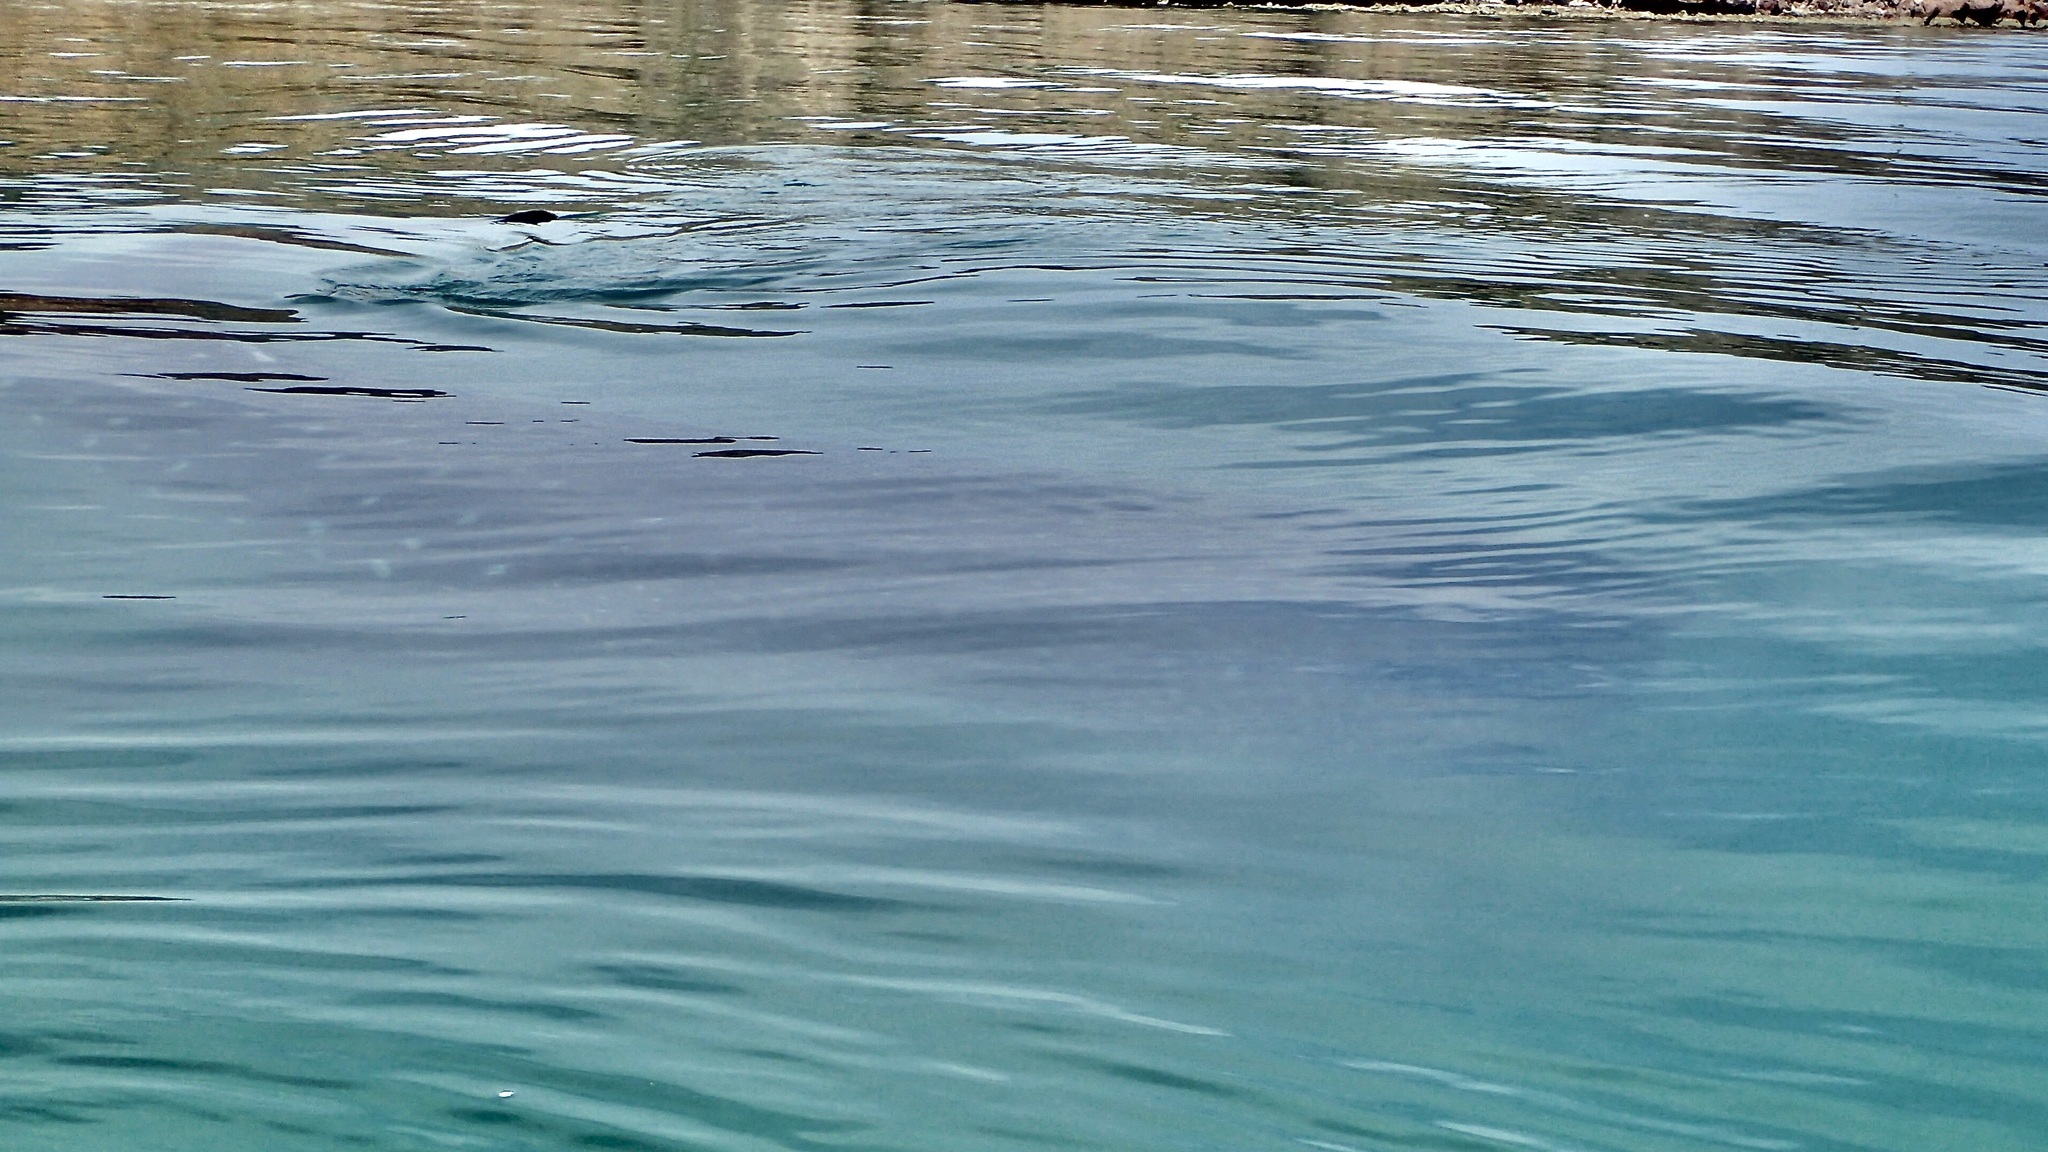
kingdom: Animalia
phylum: Chordata
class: Elasmobranchii
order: Orectolobiformes
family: Rhincodontidae
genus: Rhincodon
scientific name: Rhincodon typus
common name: Whale shark
